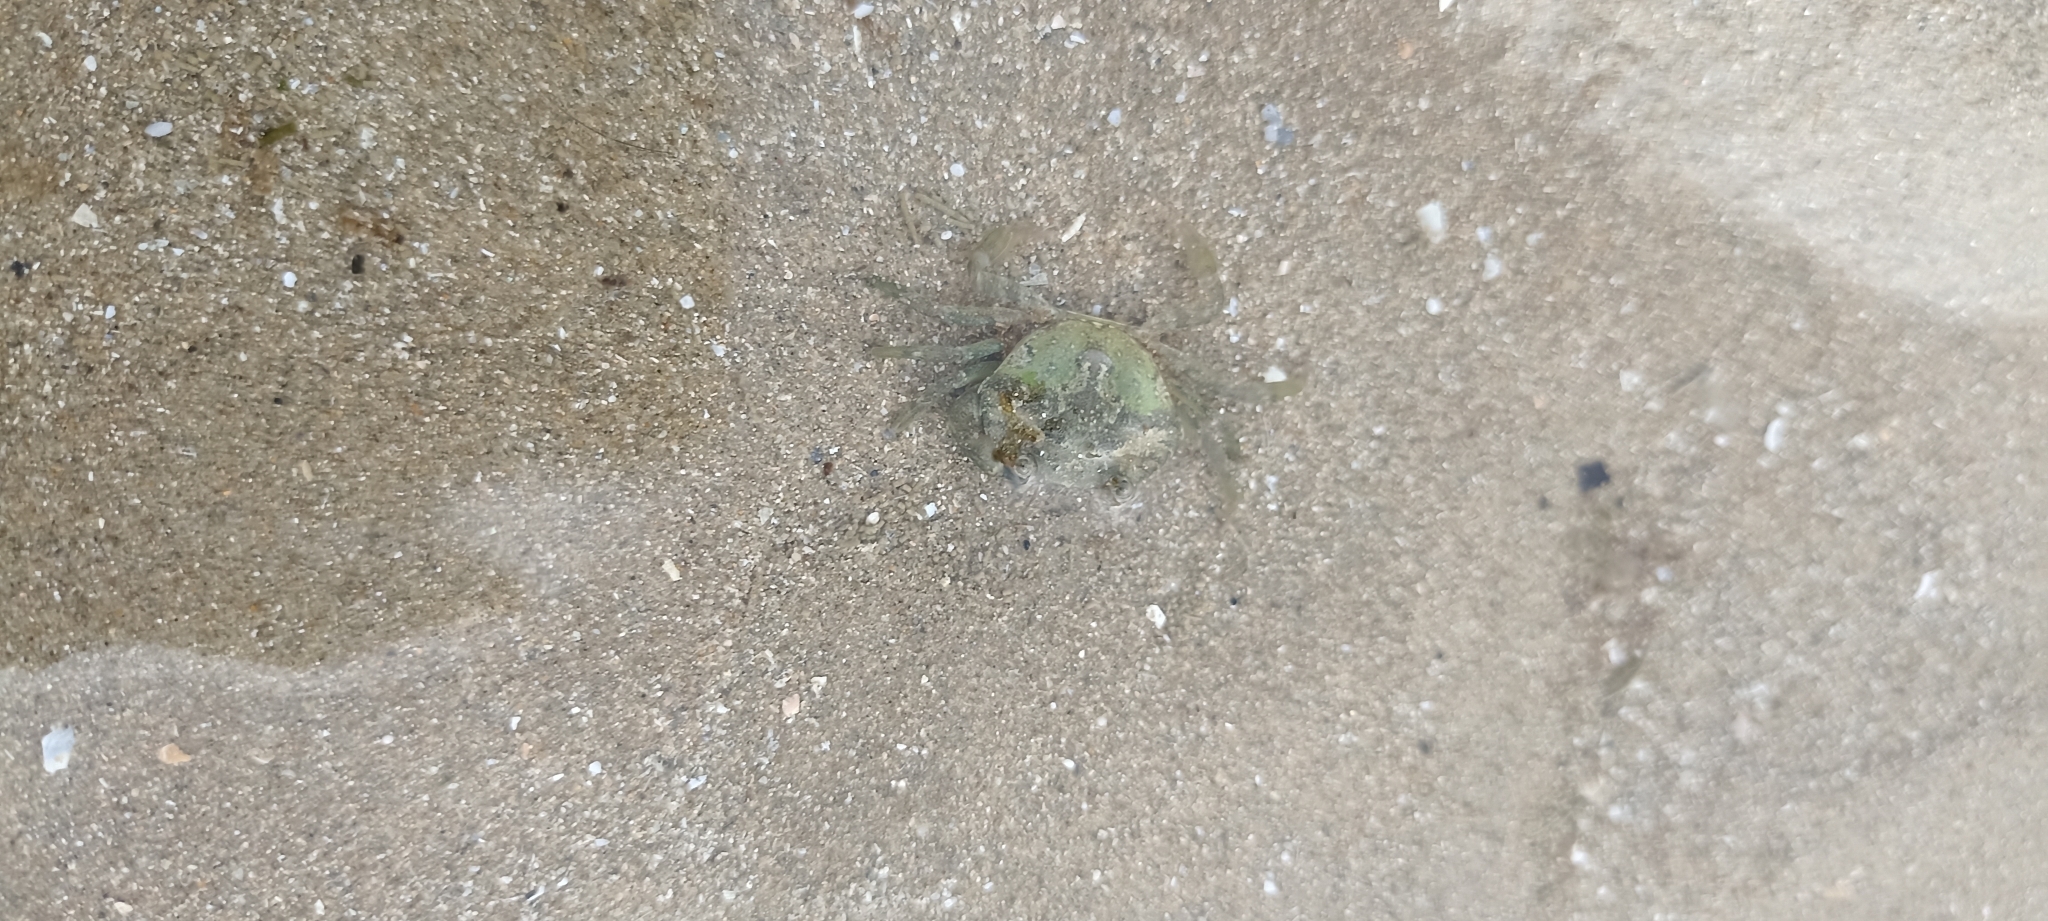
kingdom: Animalia
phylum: Arthropoda
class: Malacostraca
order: Decapoda
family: Carcinidae
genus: Carcinus
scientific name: Carcinus maenas
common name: European green crab
